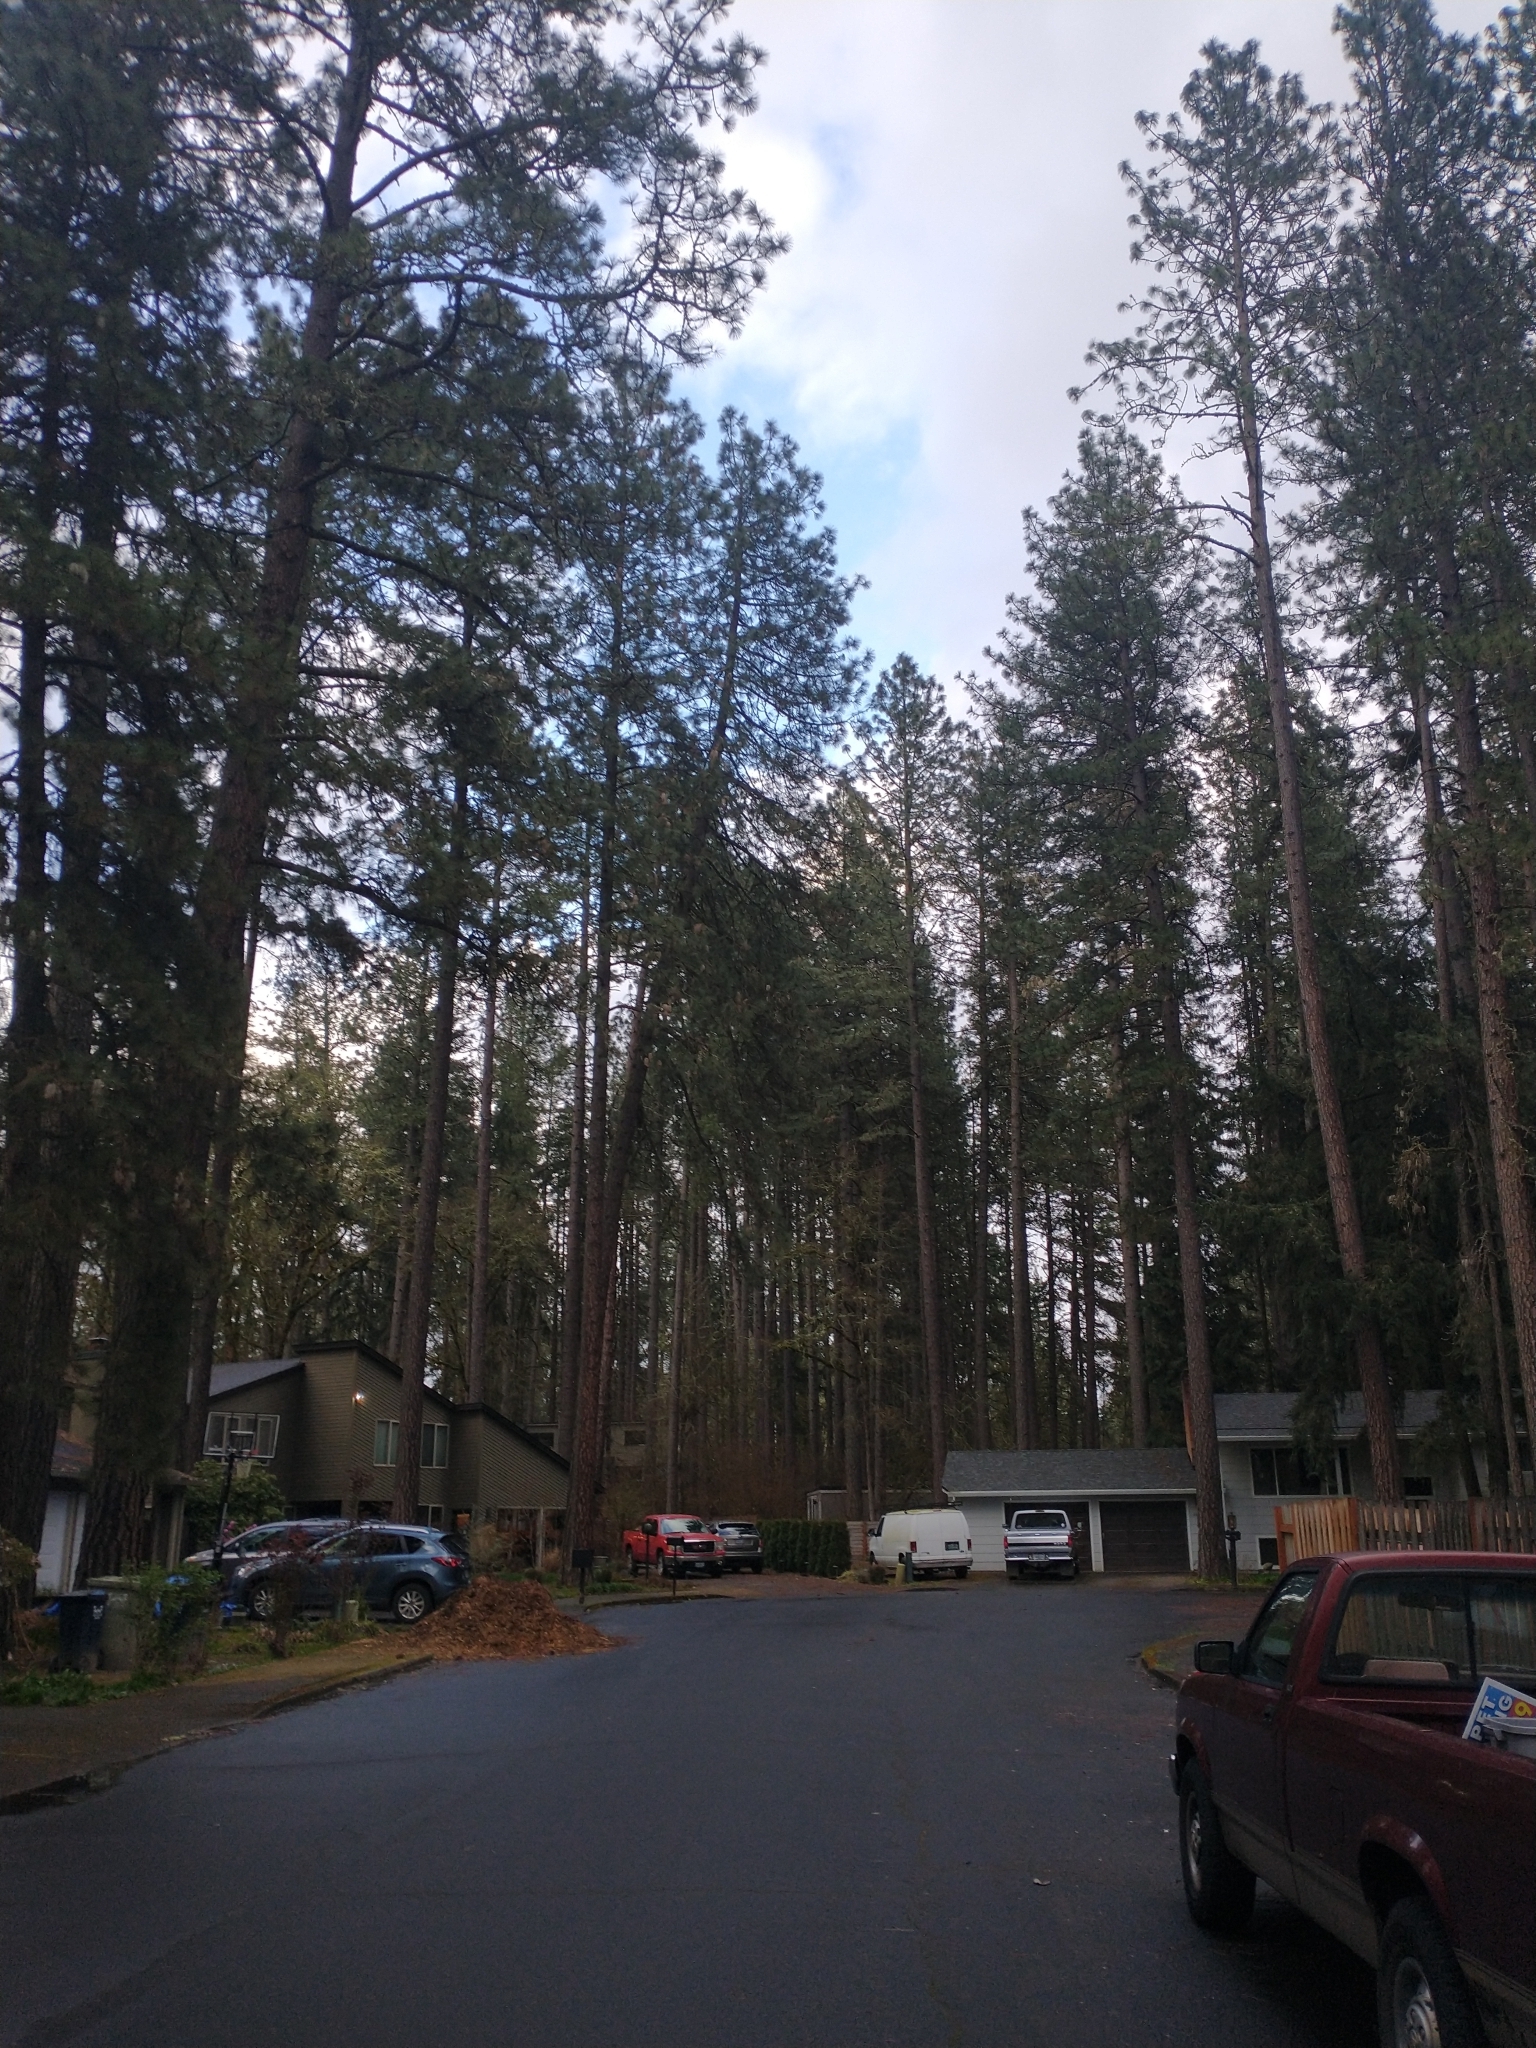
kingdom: Plantae
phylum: Tracheophyta
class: Pinopsida
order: Pinales
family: Pinaceae
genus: Pinus
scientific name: Pinus ponderosa
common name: Western yellow-pine
